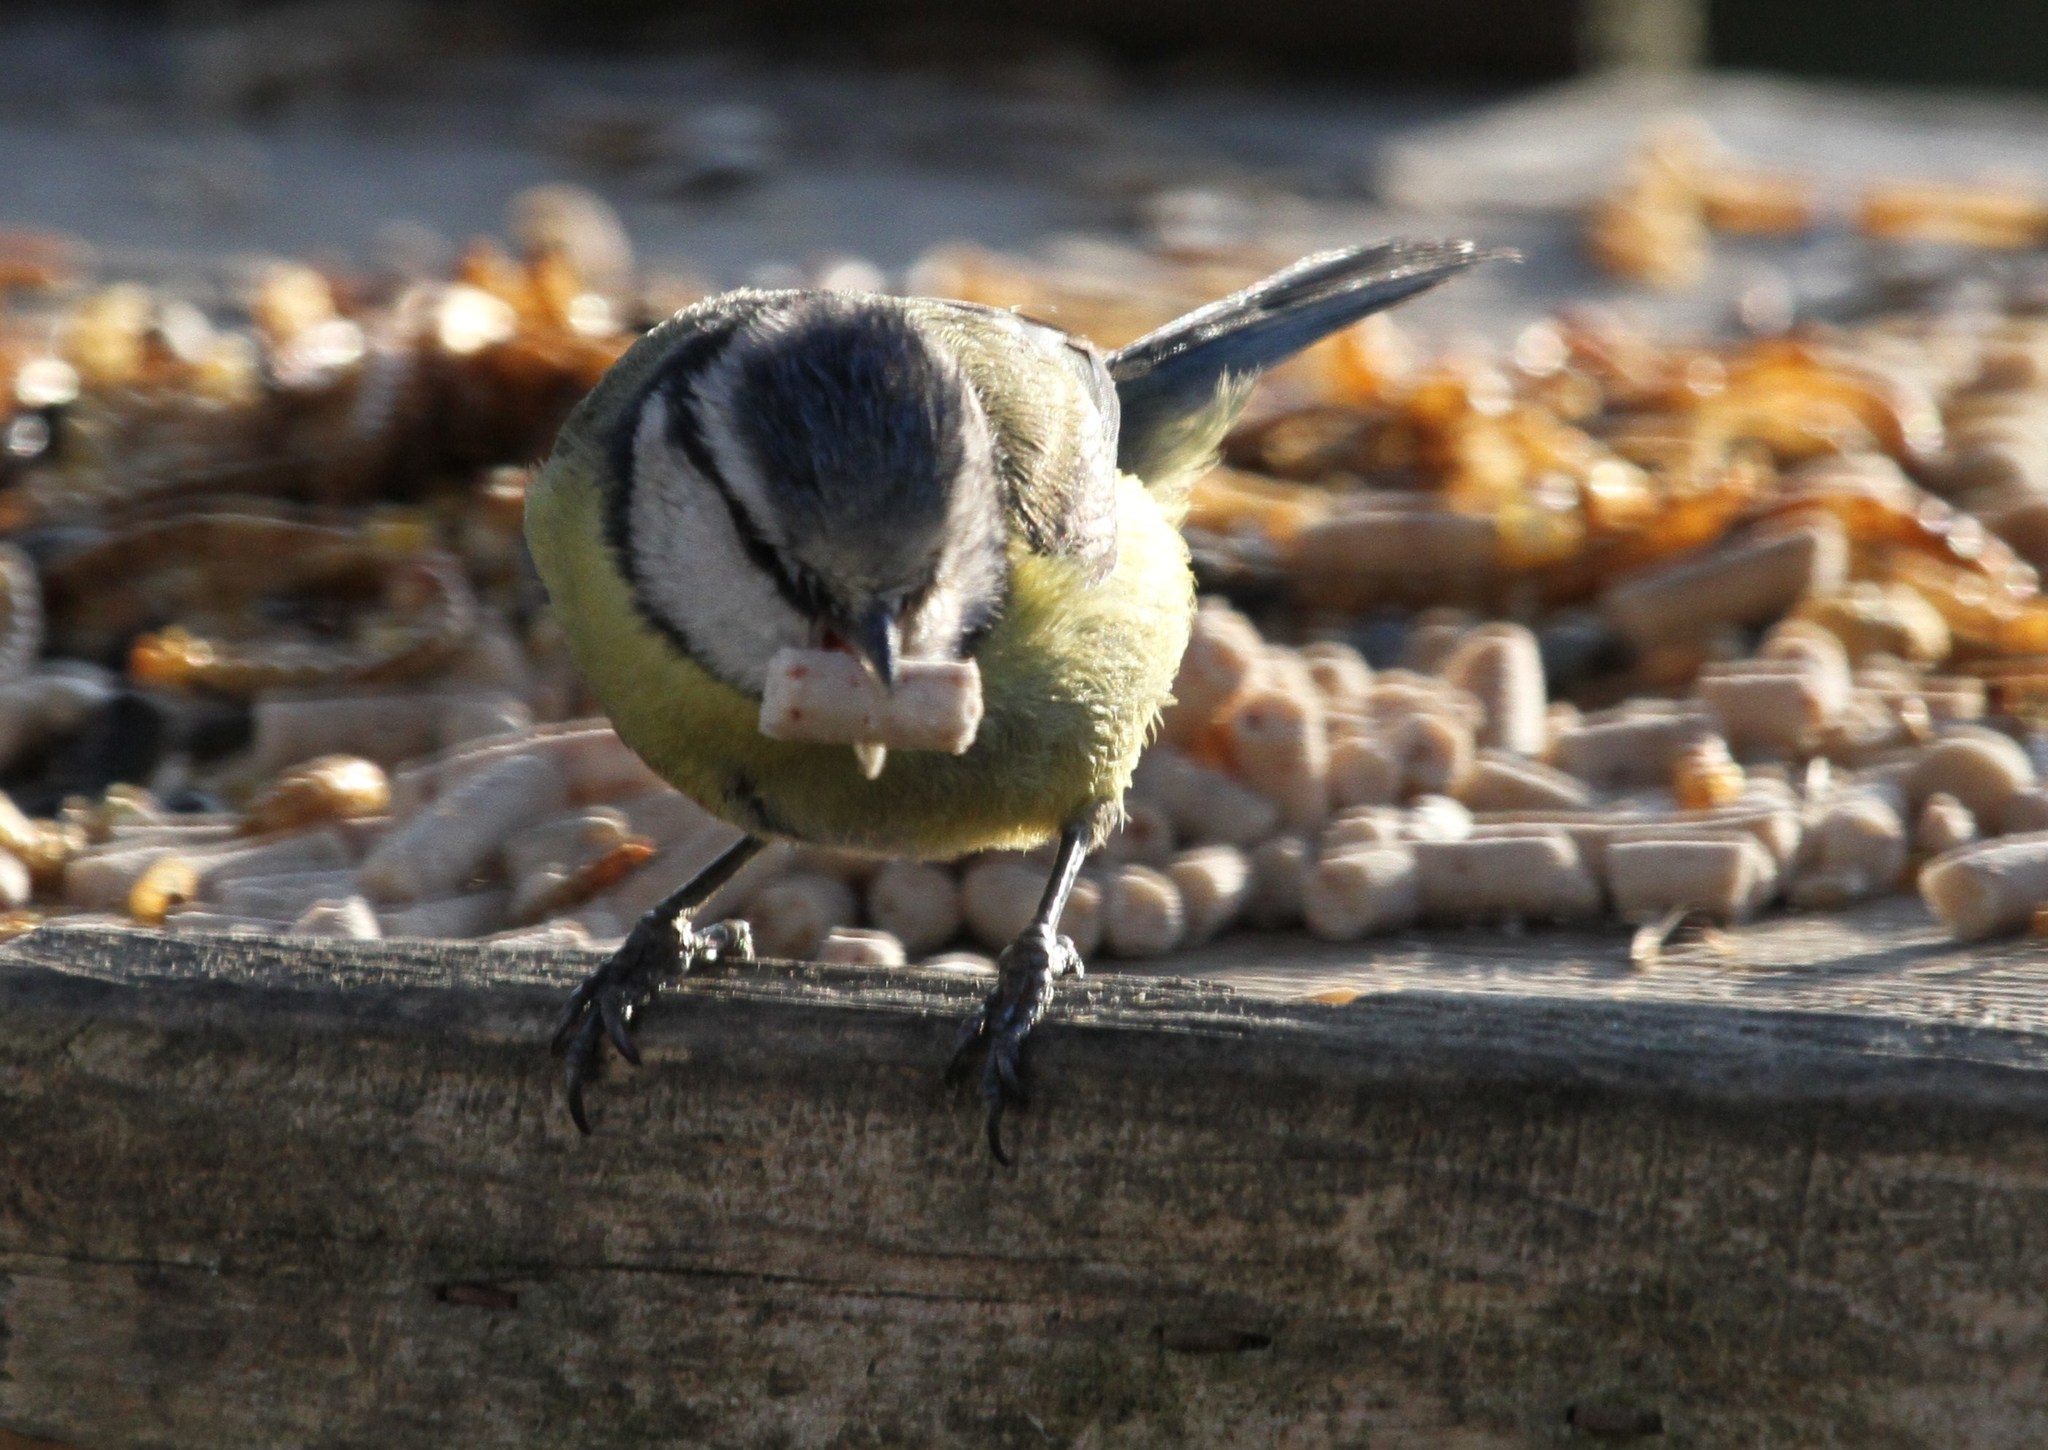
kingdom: Animalia
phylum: Chordata
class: Aves
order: Passeriformes
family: Paridae
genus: Cyanistes
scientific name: Cyanistes caeruleus
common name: Eurasian blue tit
